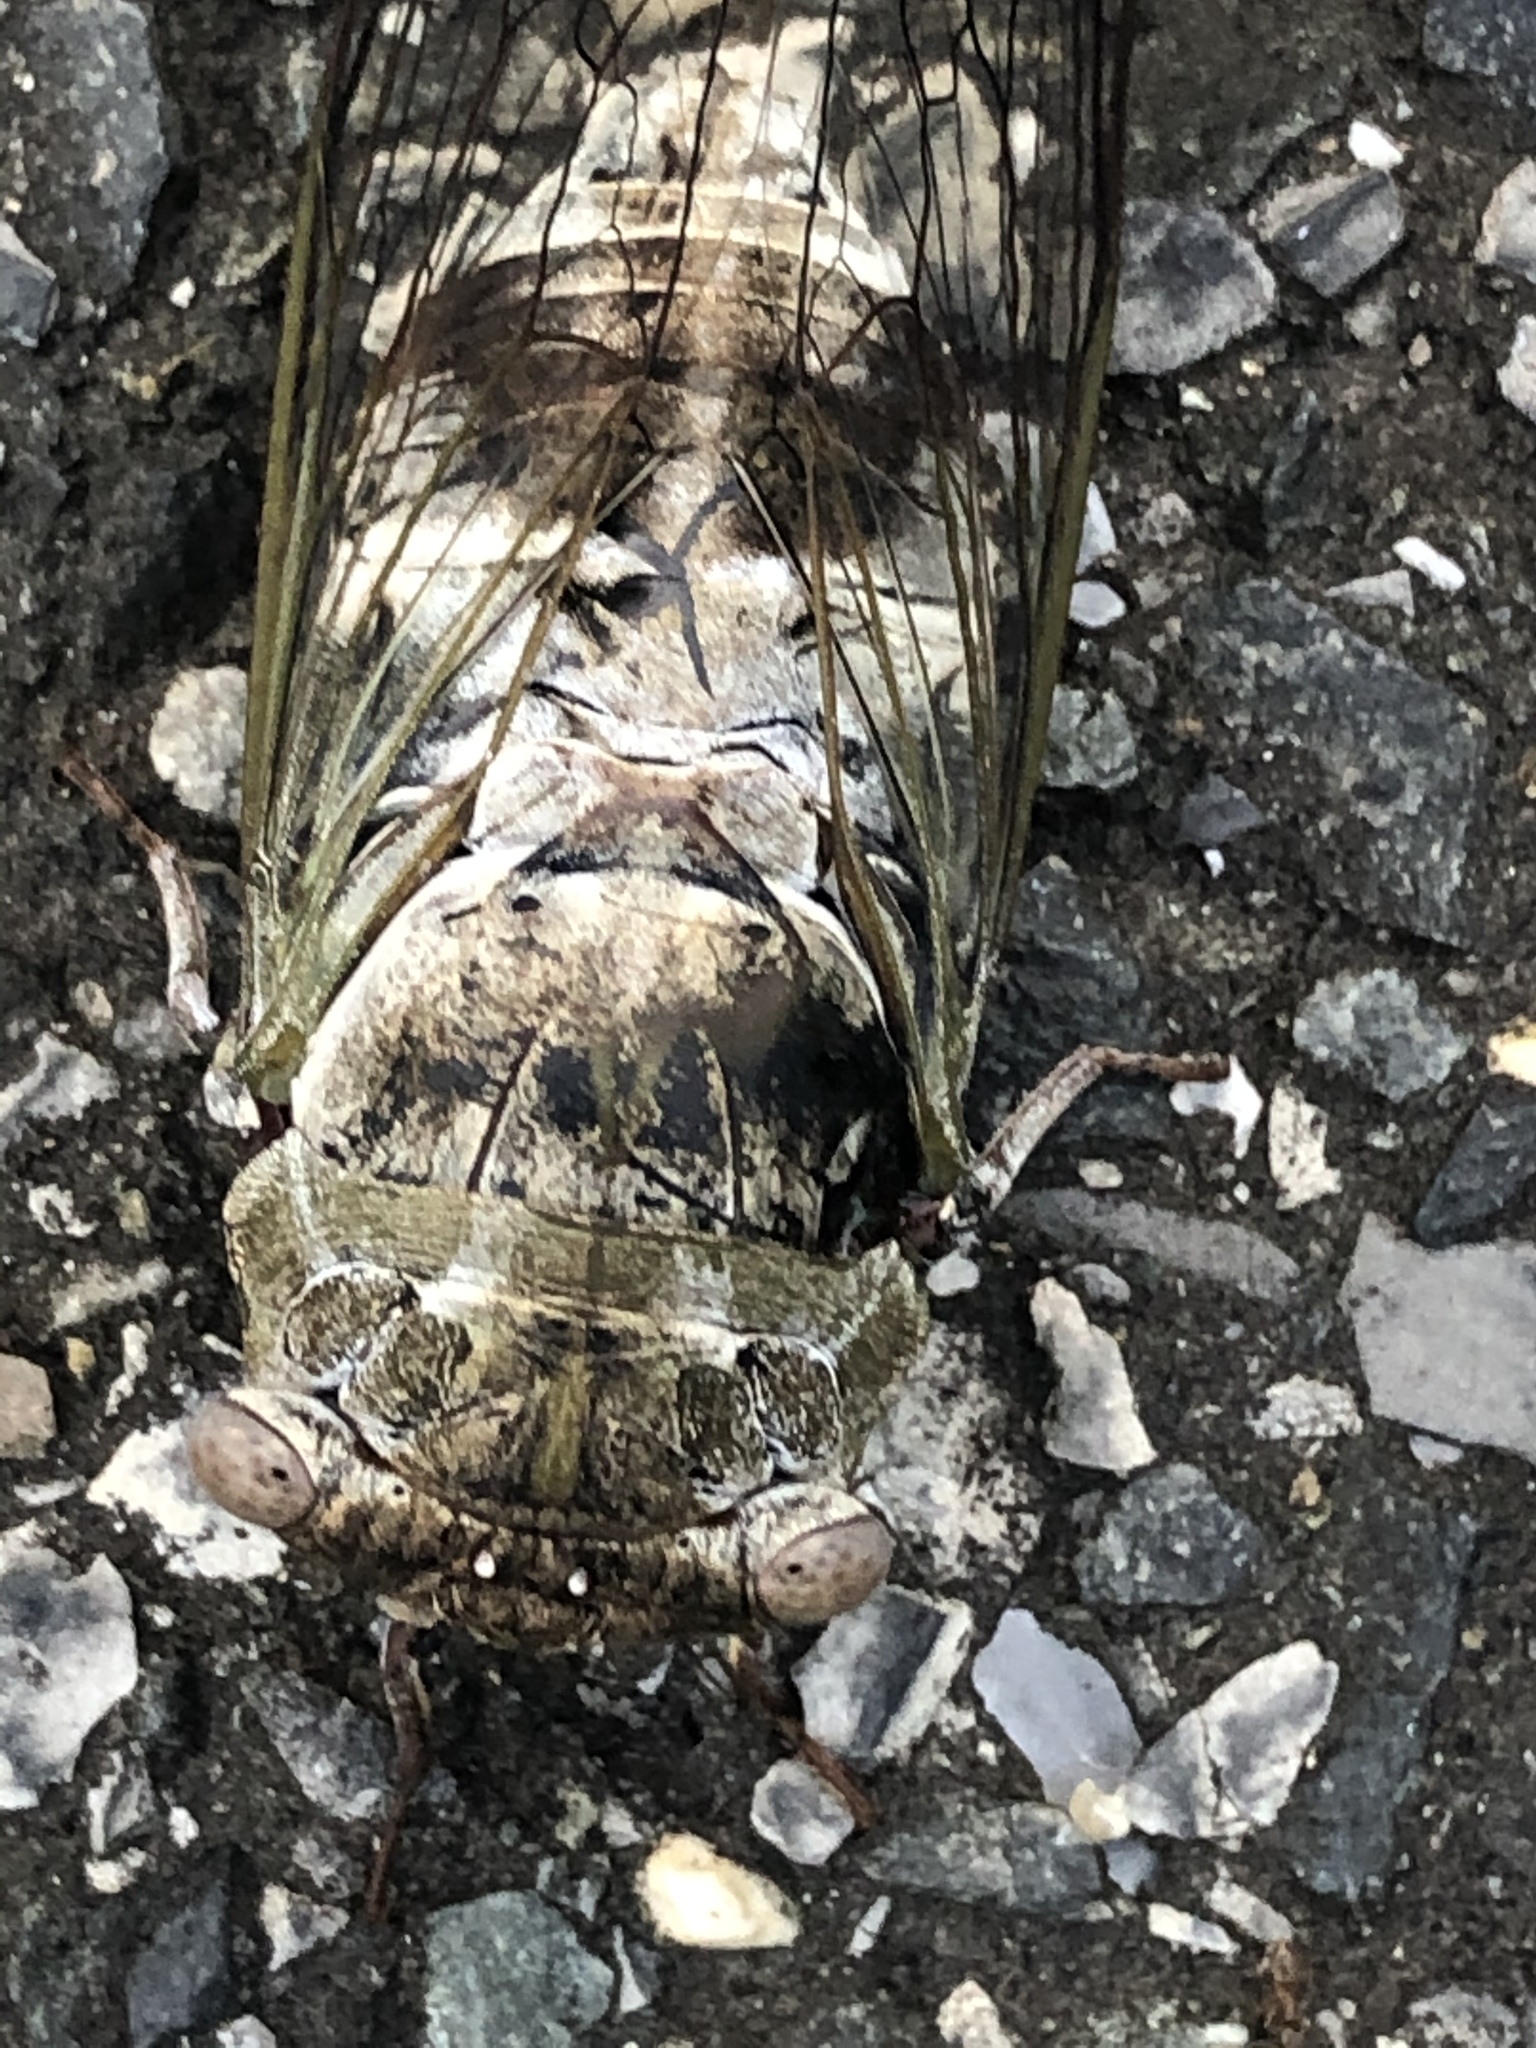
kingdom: Animalia
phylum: Arthropoda
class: Insecta
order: Hemiptera
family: Cicadidae
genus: Diceroprocta
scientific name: Diceroprocta grossa
